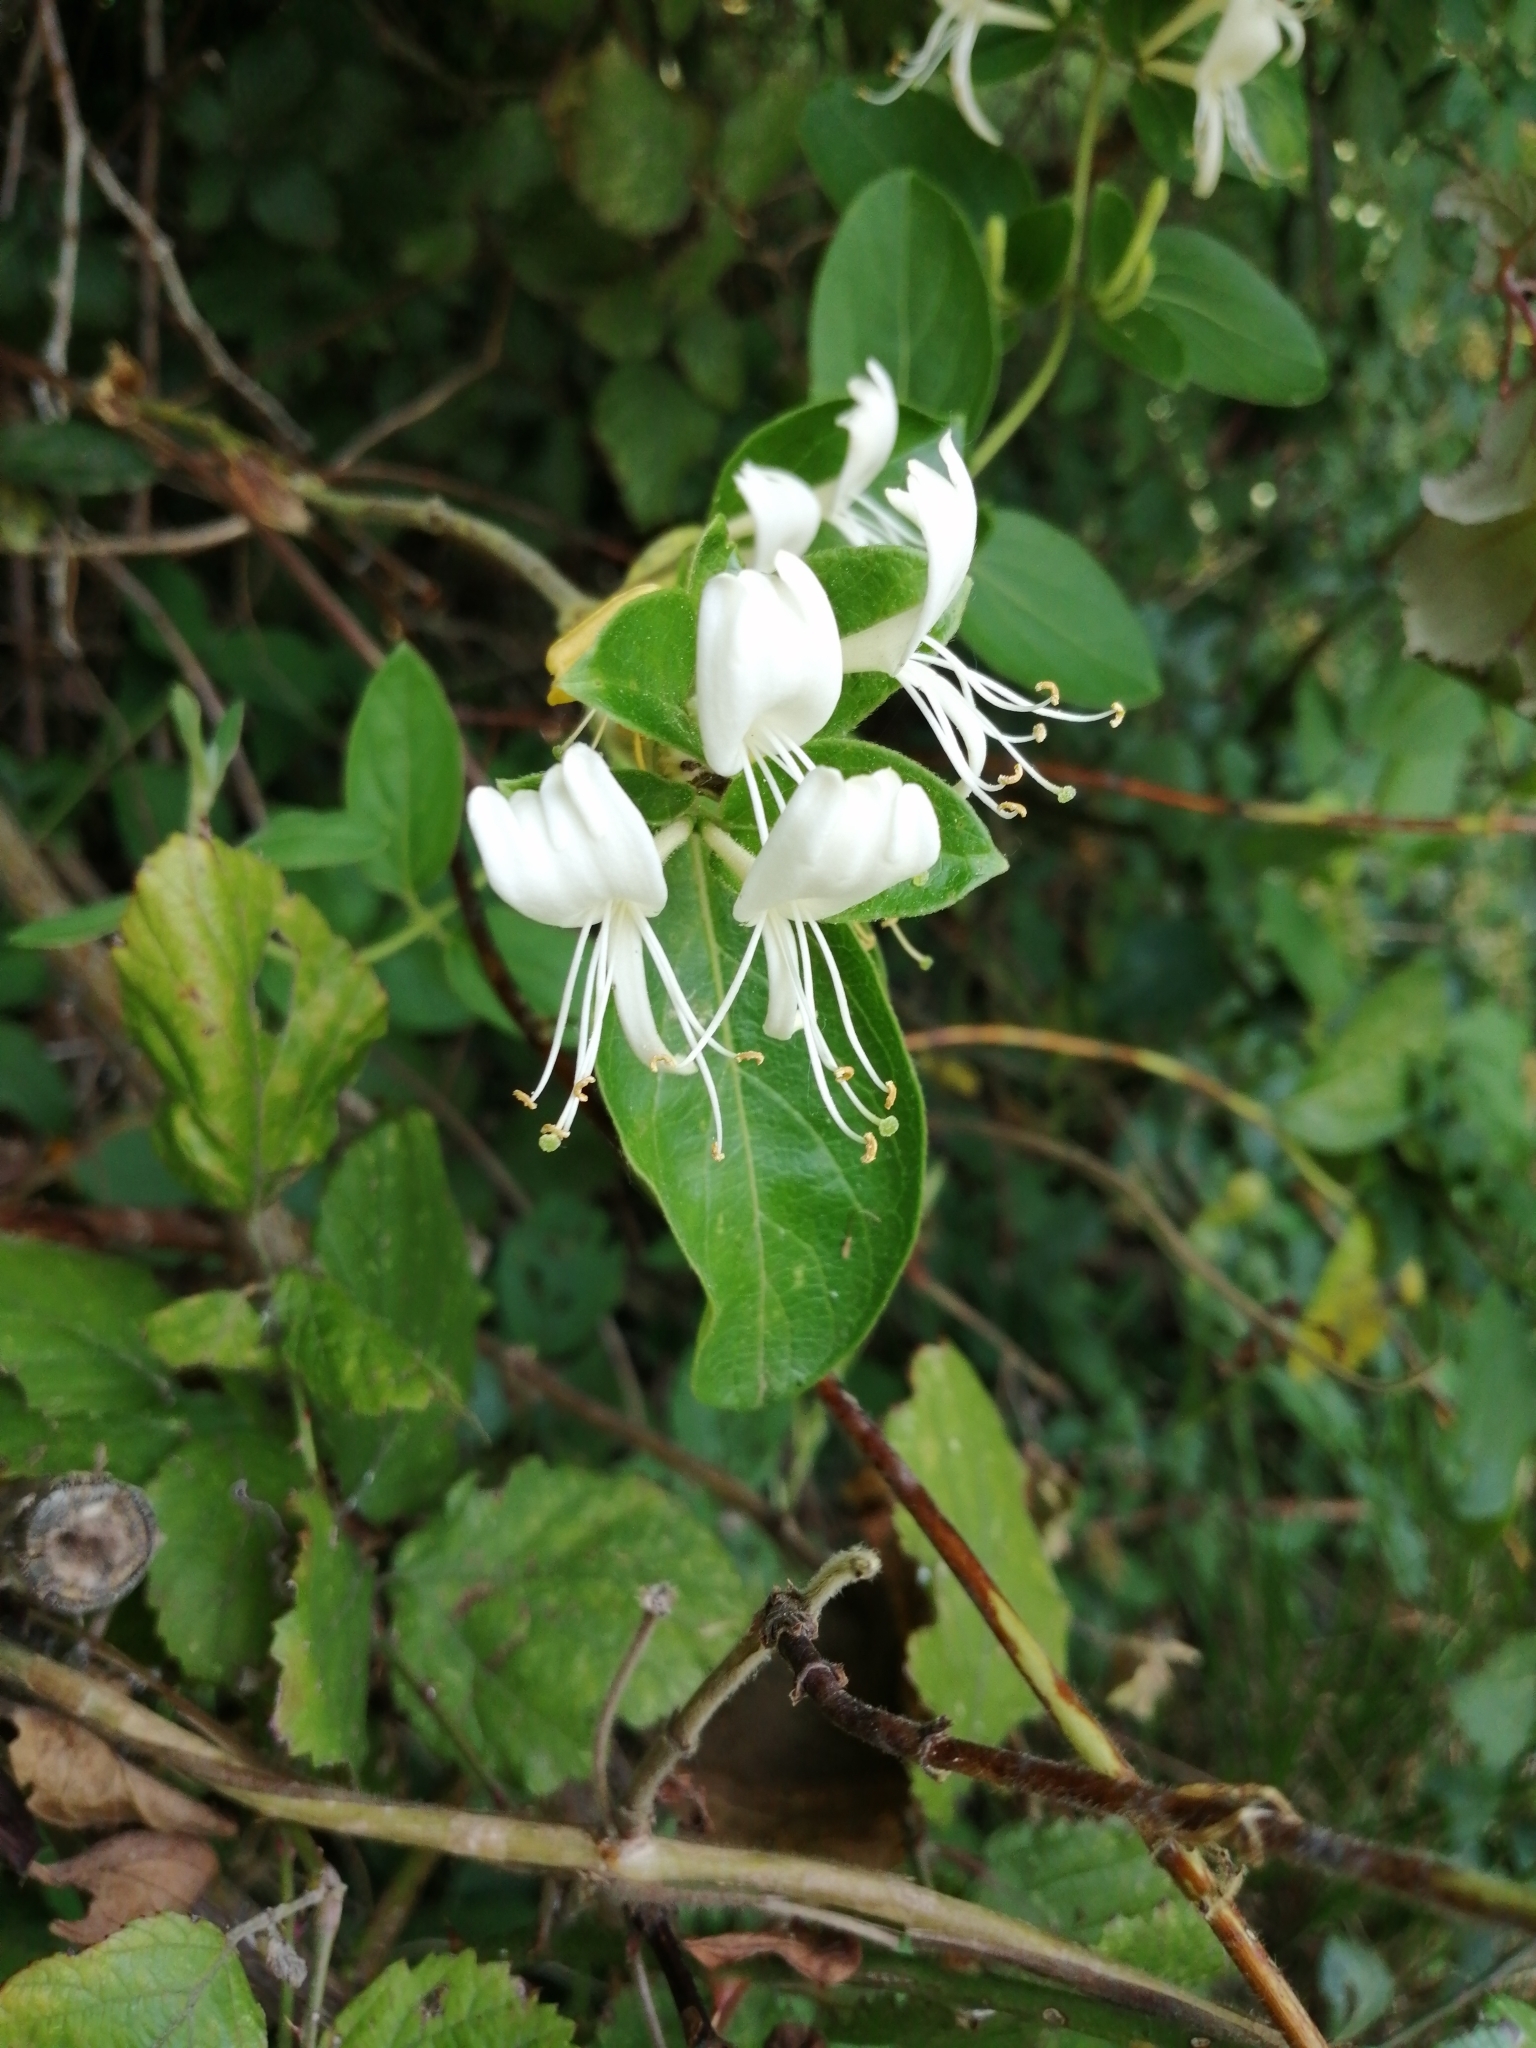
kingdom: Plantae
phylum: Tracheophyta
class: Magnoliopsida
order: Dipsacales
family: Caprifoliaceae
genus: Lonicera
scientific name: Lonicera japonica
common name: Japanese honeysuckle
